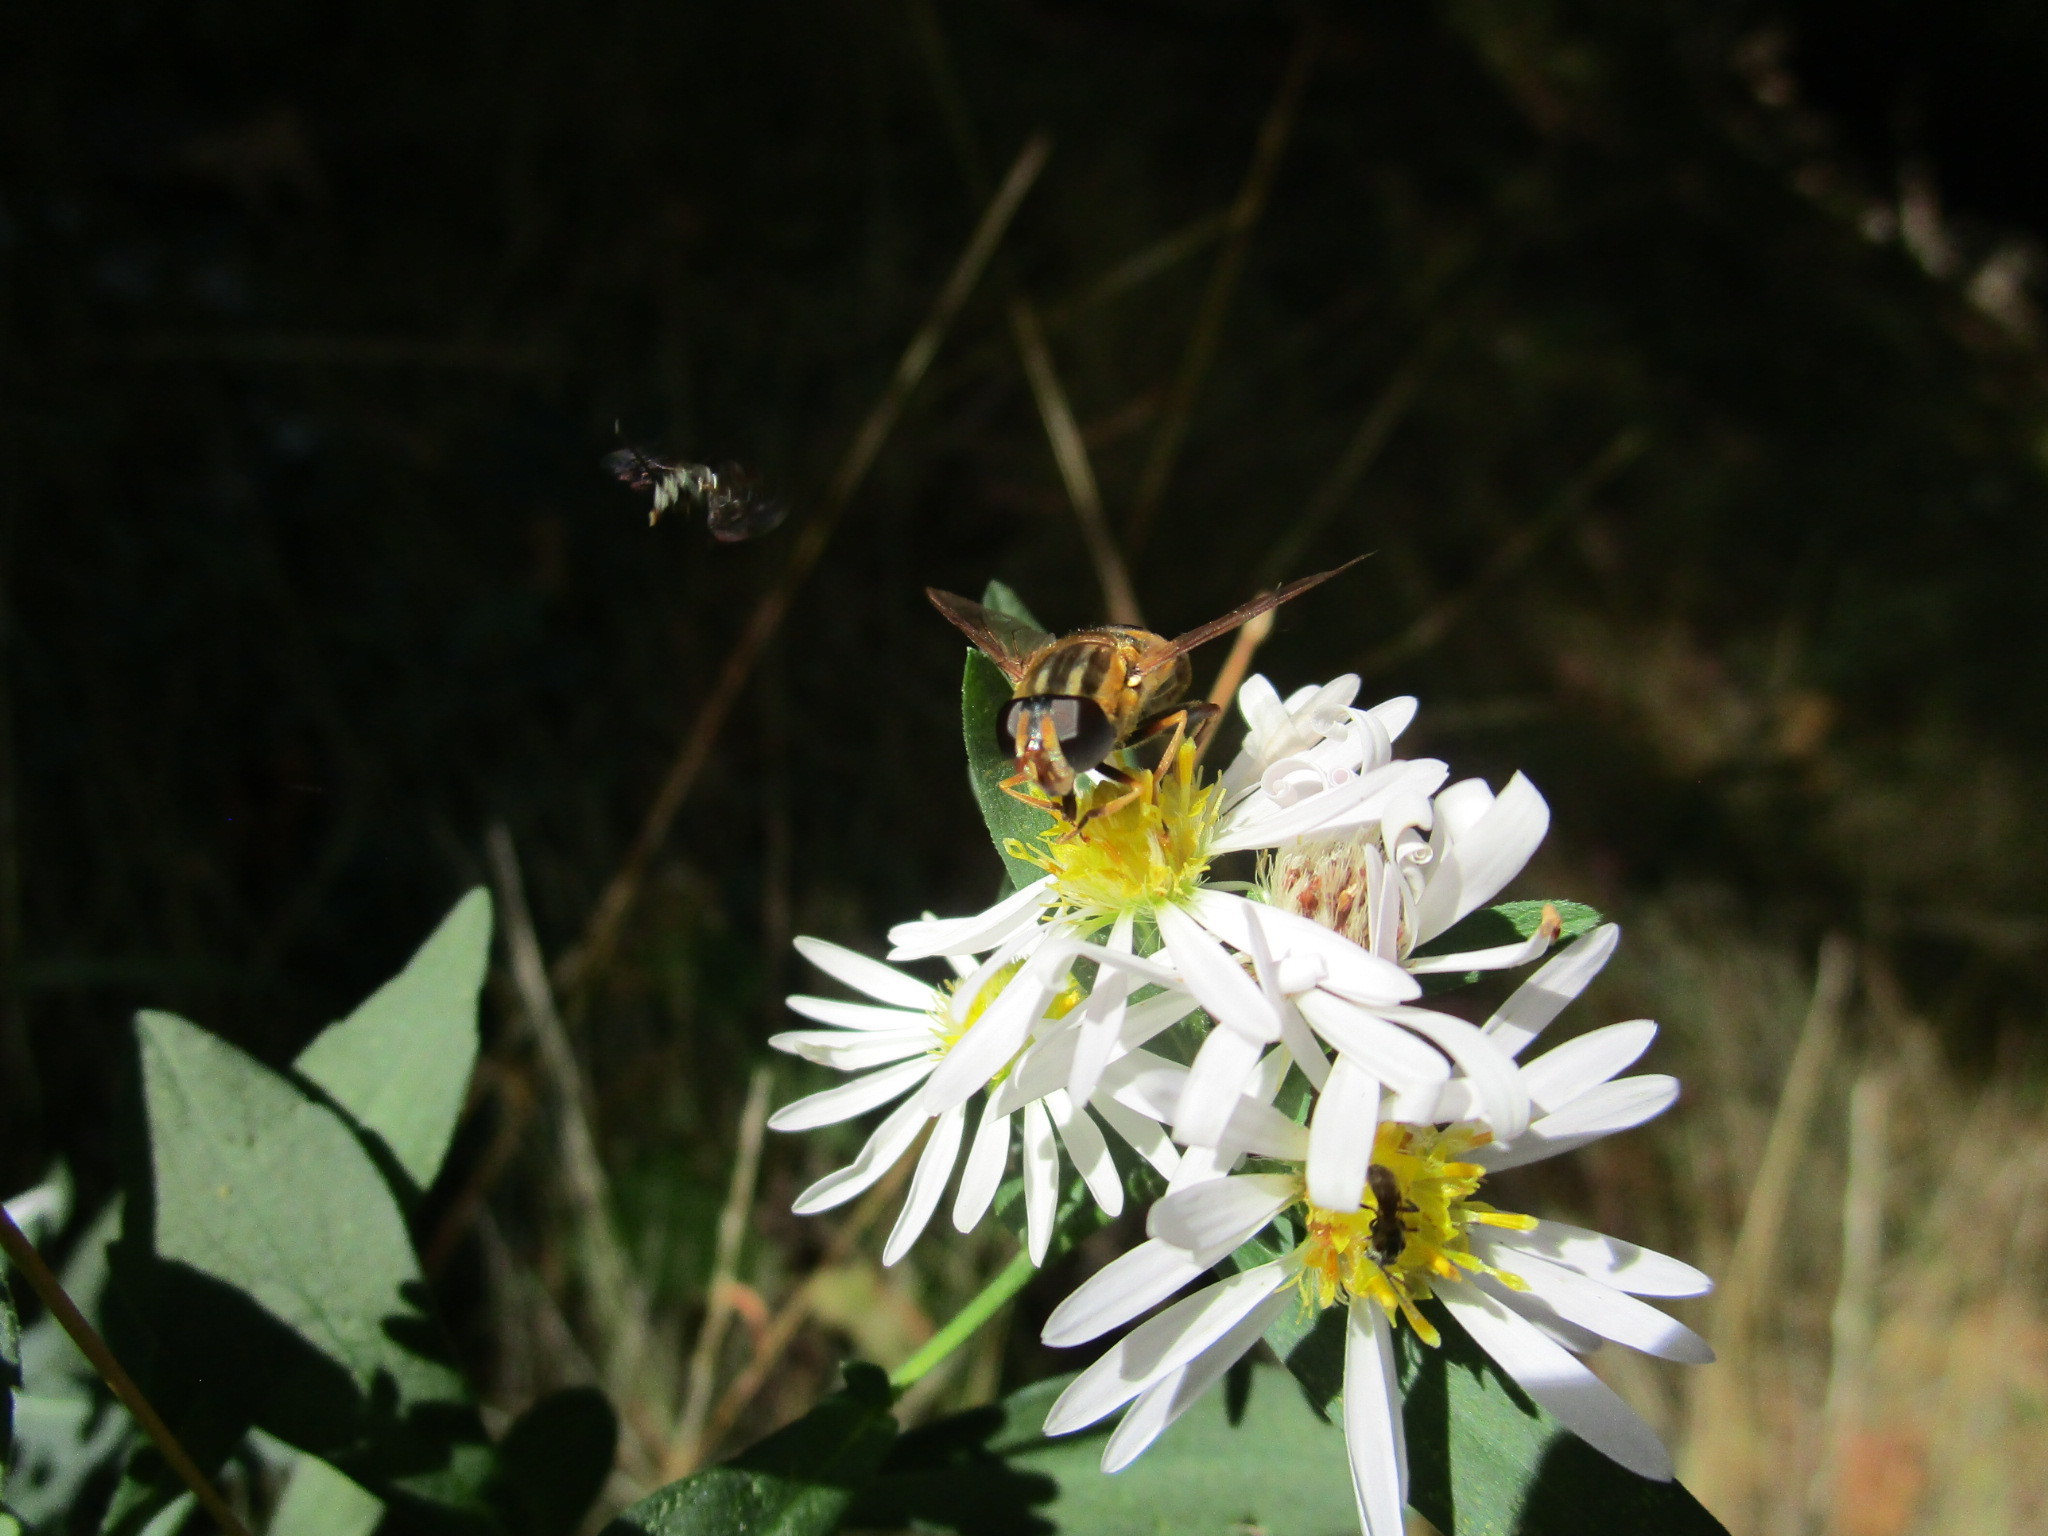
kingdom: Animalia
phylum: Arthropoda
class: Insecta
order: Diptera
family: Syrphidae
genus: Helophilus
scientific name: Helophilus fasciatus
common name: Narrow-headed marsh fly
